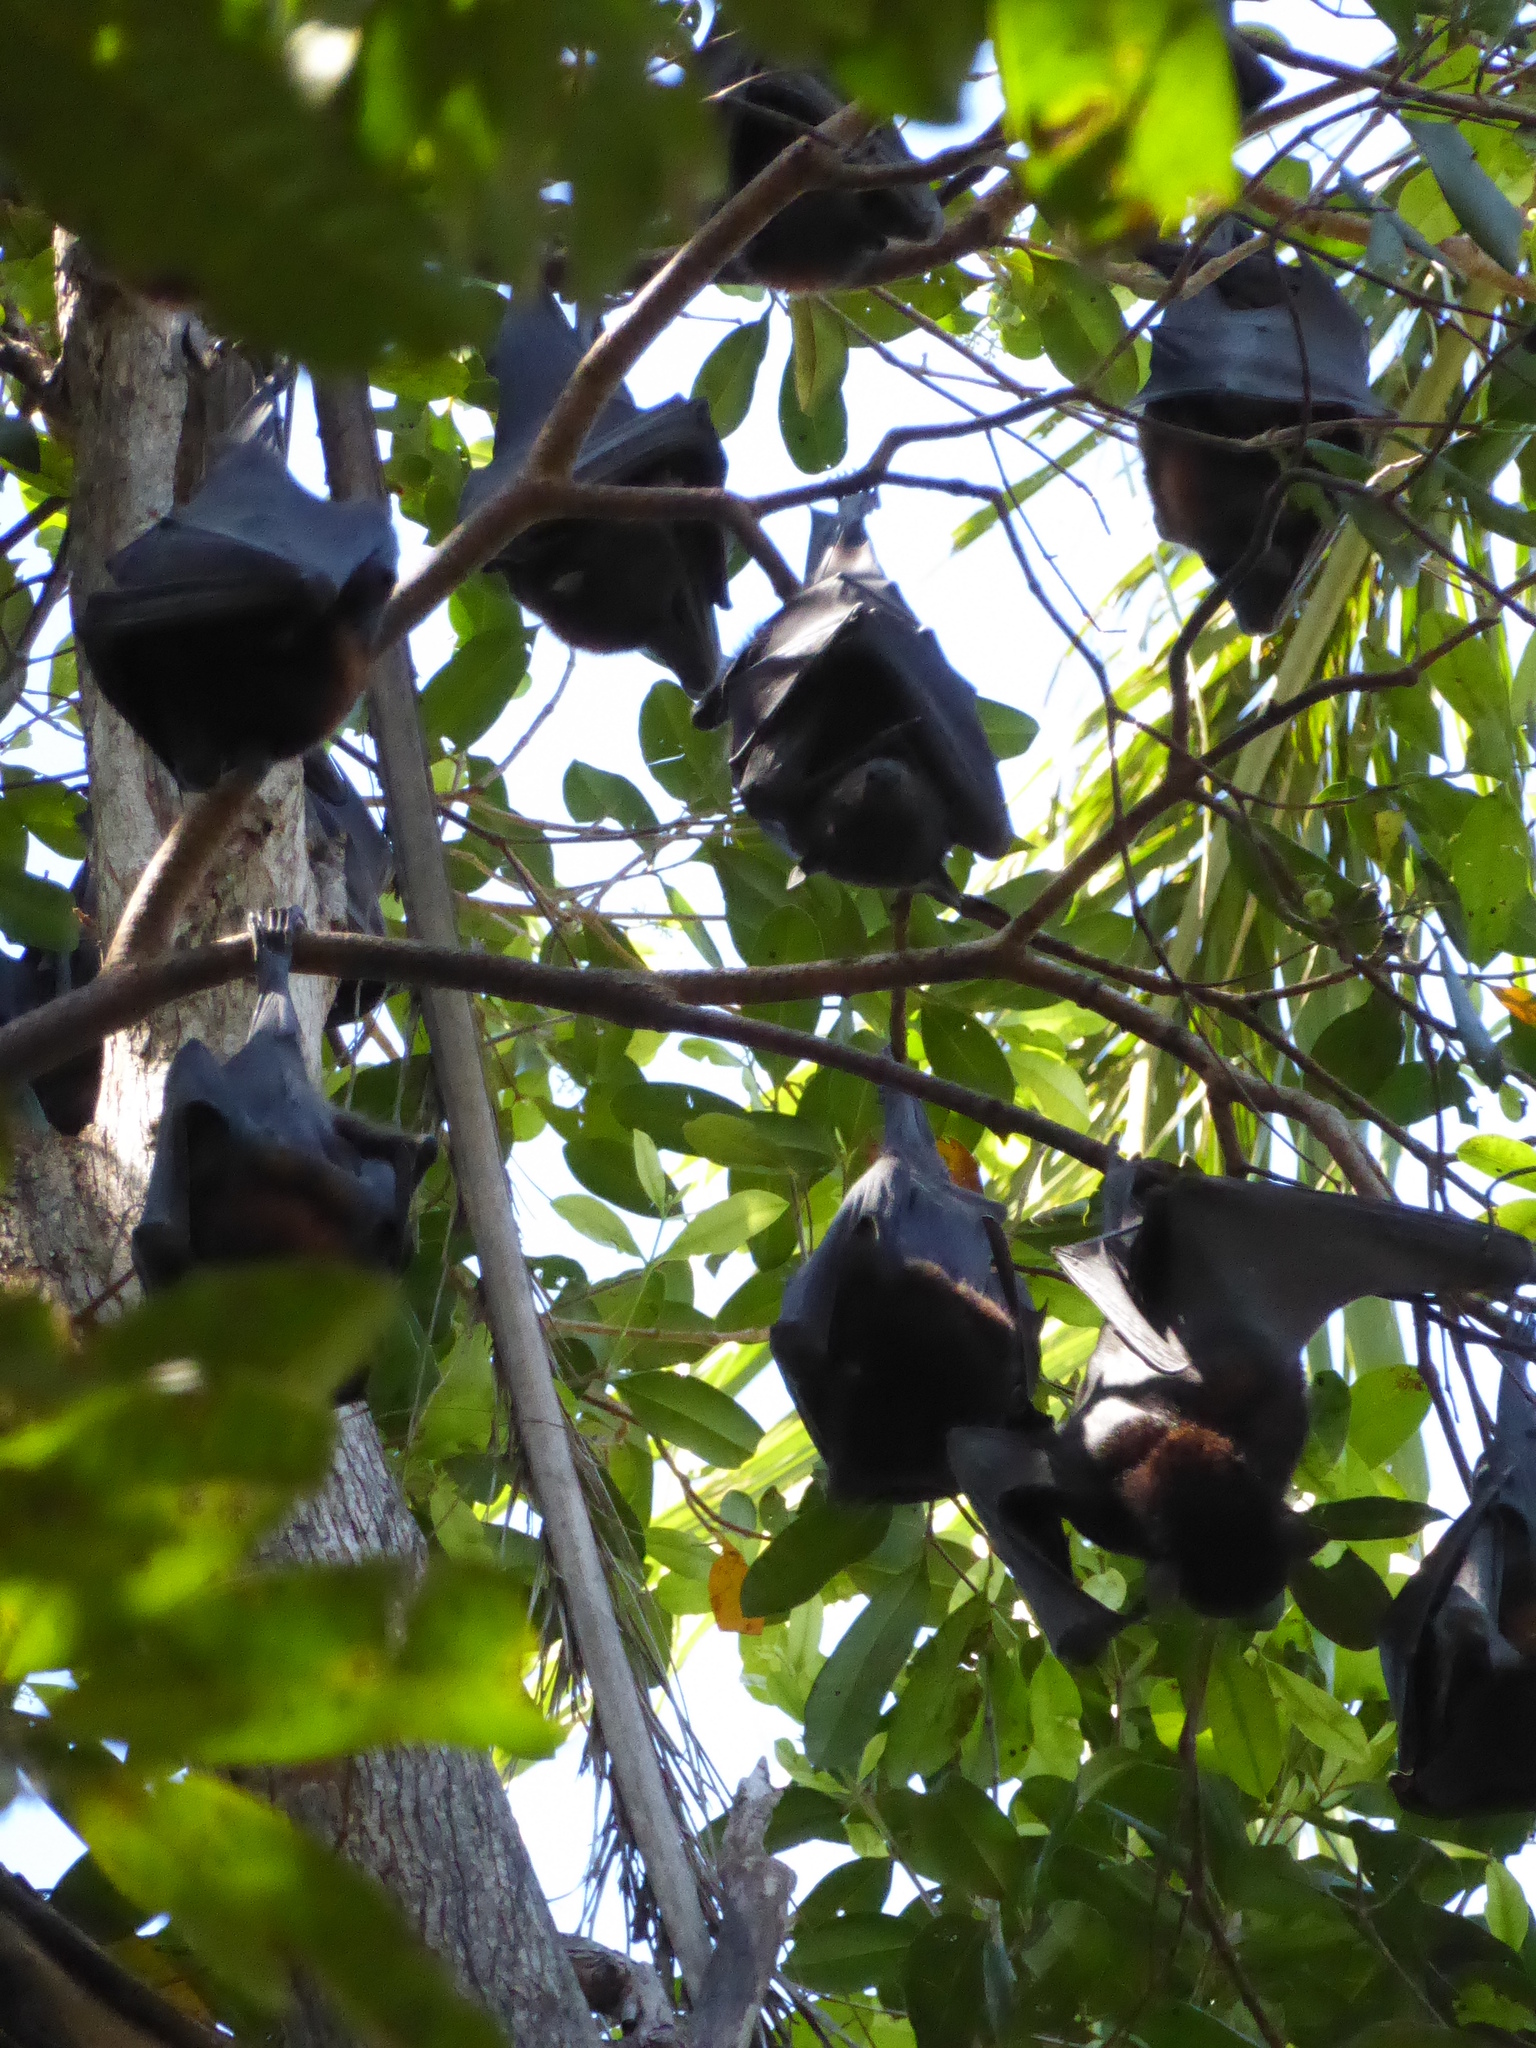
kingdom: Animalia
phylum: Chordata
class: Mammalia
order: Chiroptera
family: Pteropodidae
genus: Pteropus
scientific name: Pteropus alecto
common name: Black flying fox
